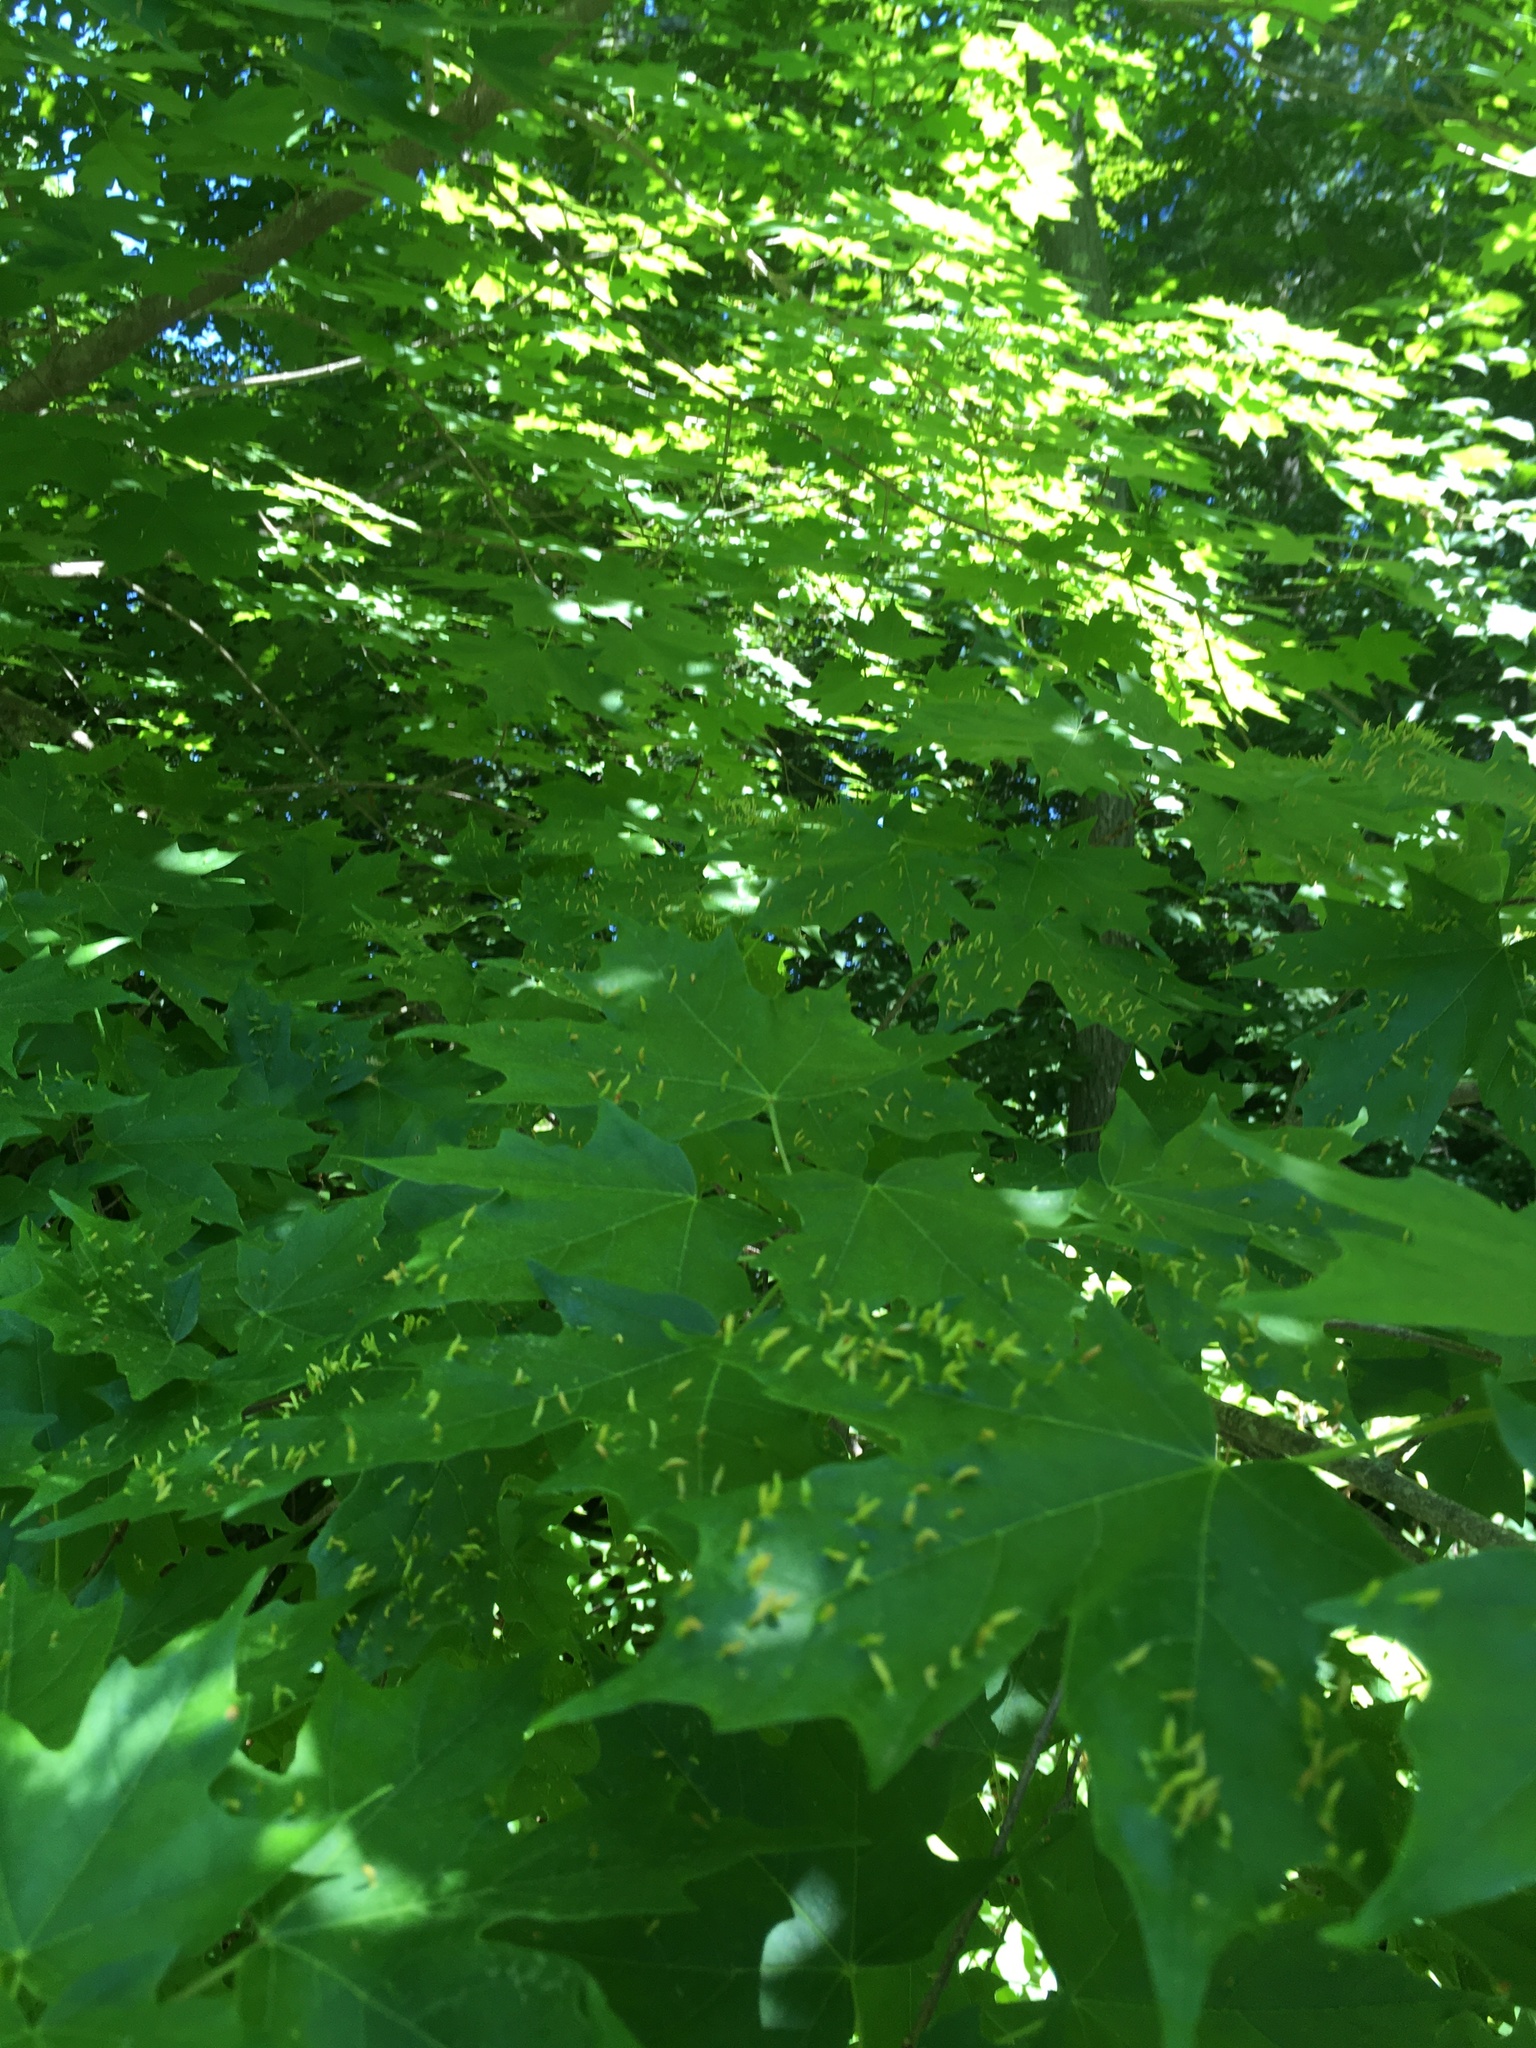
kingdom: Animalia
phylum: Arthropoda
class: Arachnida
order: Trombidiformes
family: Eriophyidae
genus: Vasates
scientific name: Vasates aceriscrumena
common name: Maple spindle gall mite
